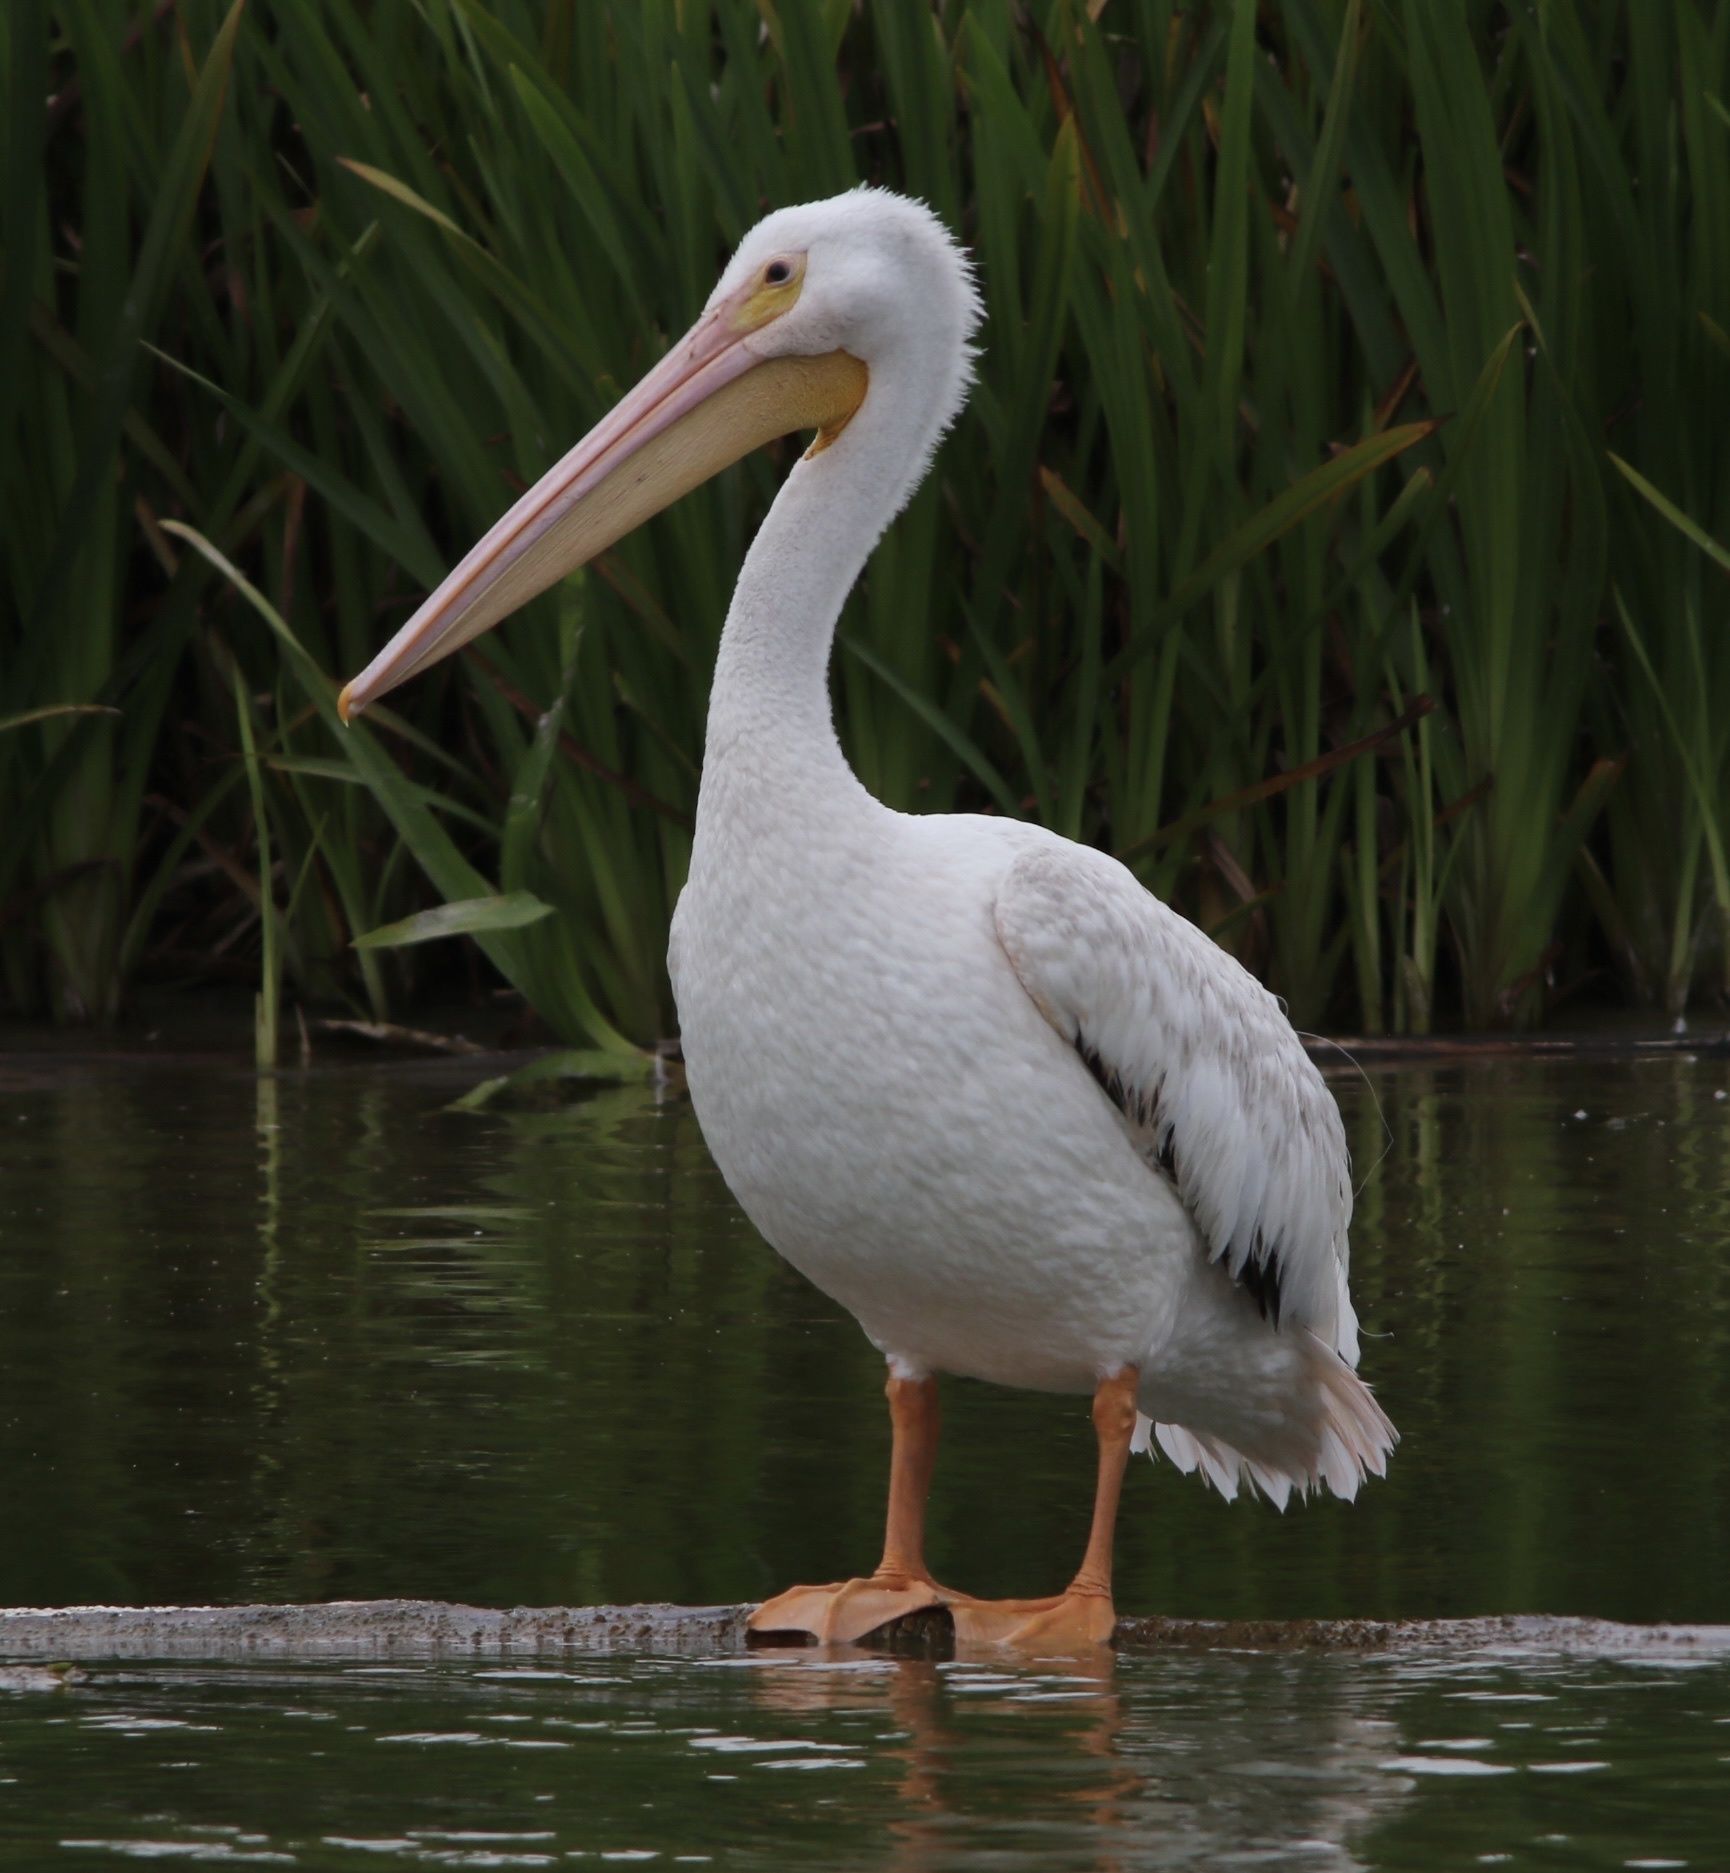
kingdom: Animalia
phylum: Chordata
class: Aves
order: Pelecaniformes
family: Pelecanidae
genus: Pelecanus
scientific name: Pelecanus erythrorhynchos
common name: American white pelican
